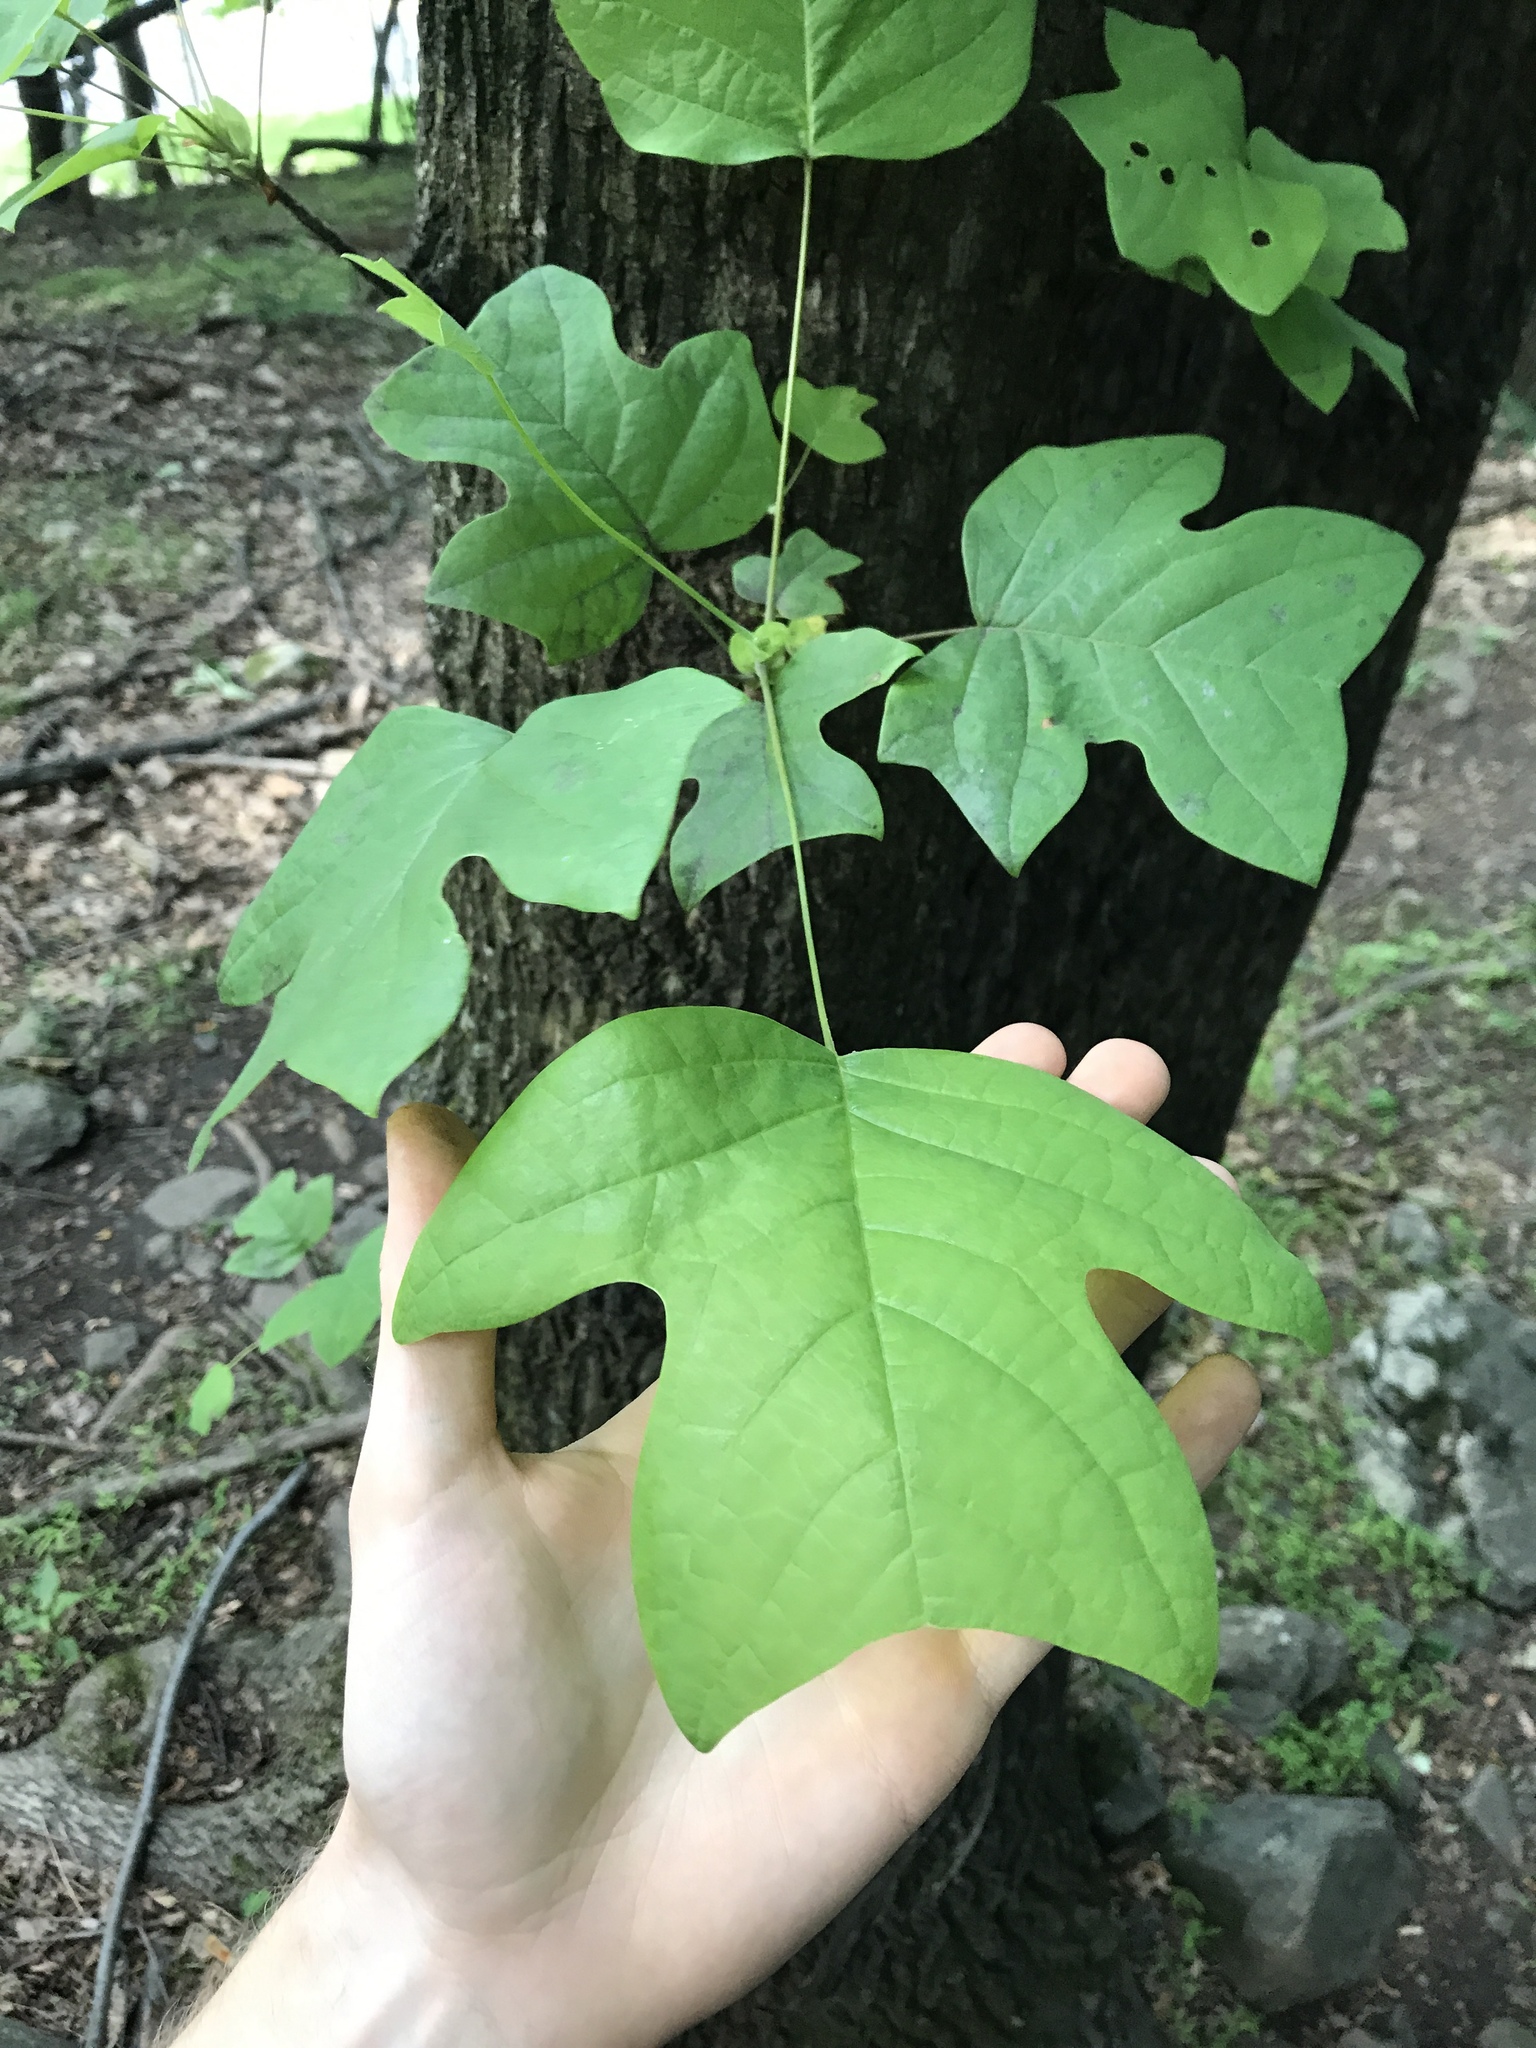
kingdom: Plantae
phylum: Tracheophyta
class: Magnoliopsida
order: Magnoliales
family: Magnoliaceae
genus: Liriodendron
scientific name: Liriodendron tulipifera
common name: Tulip tree
